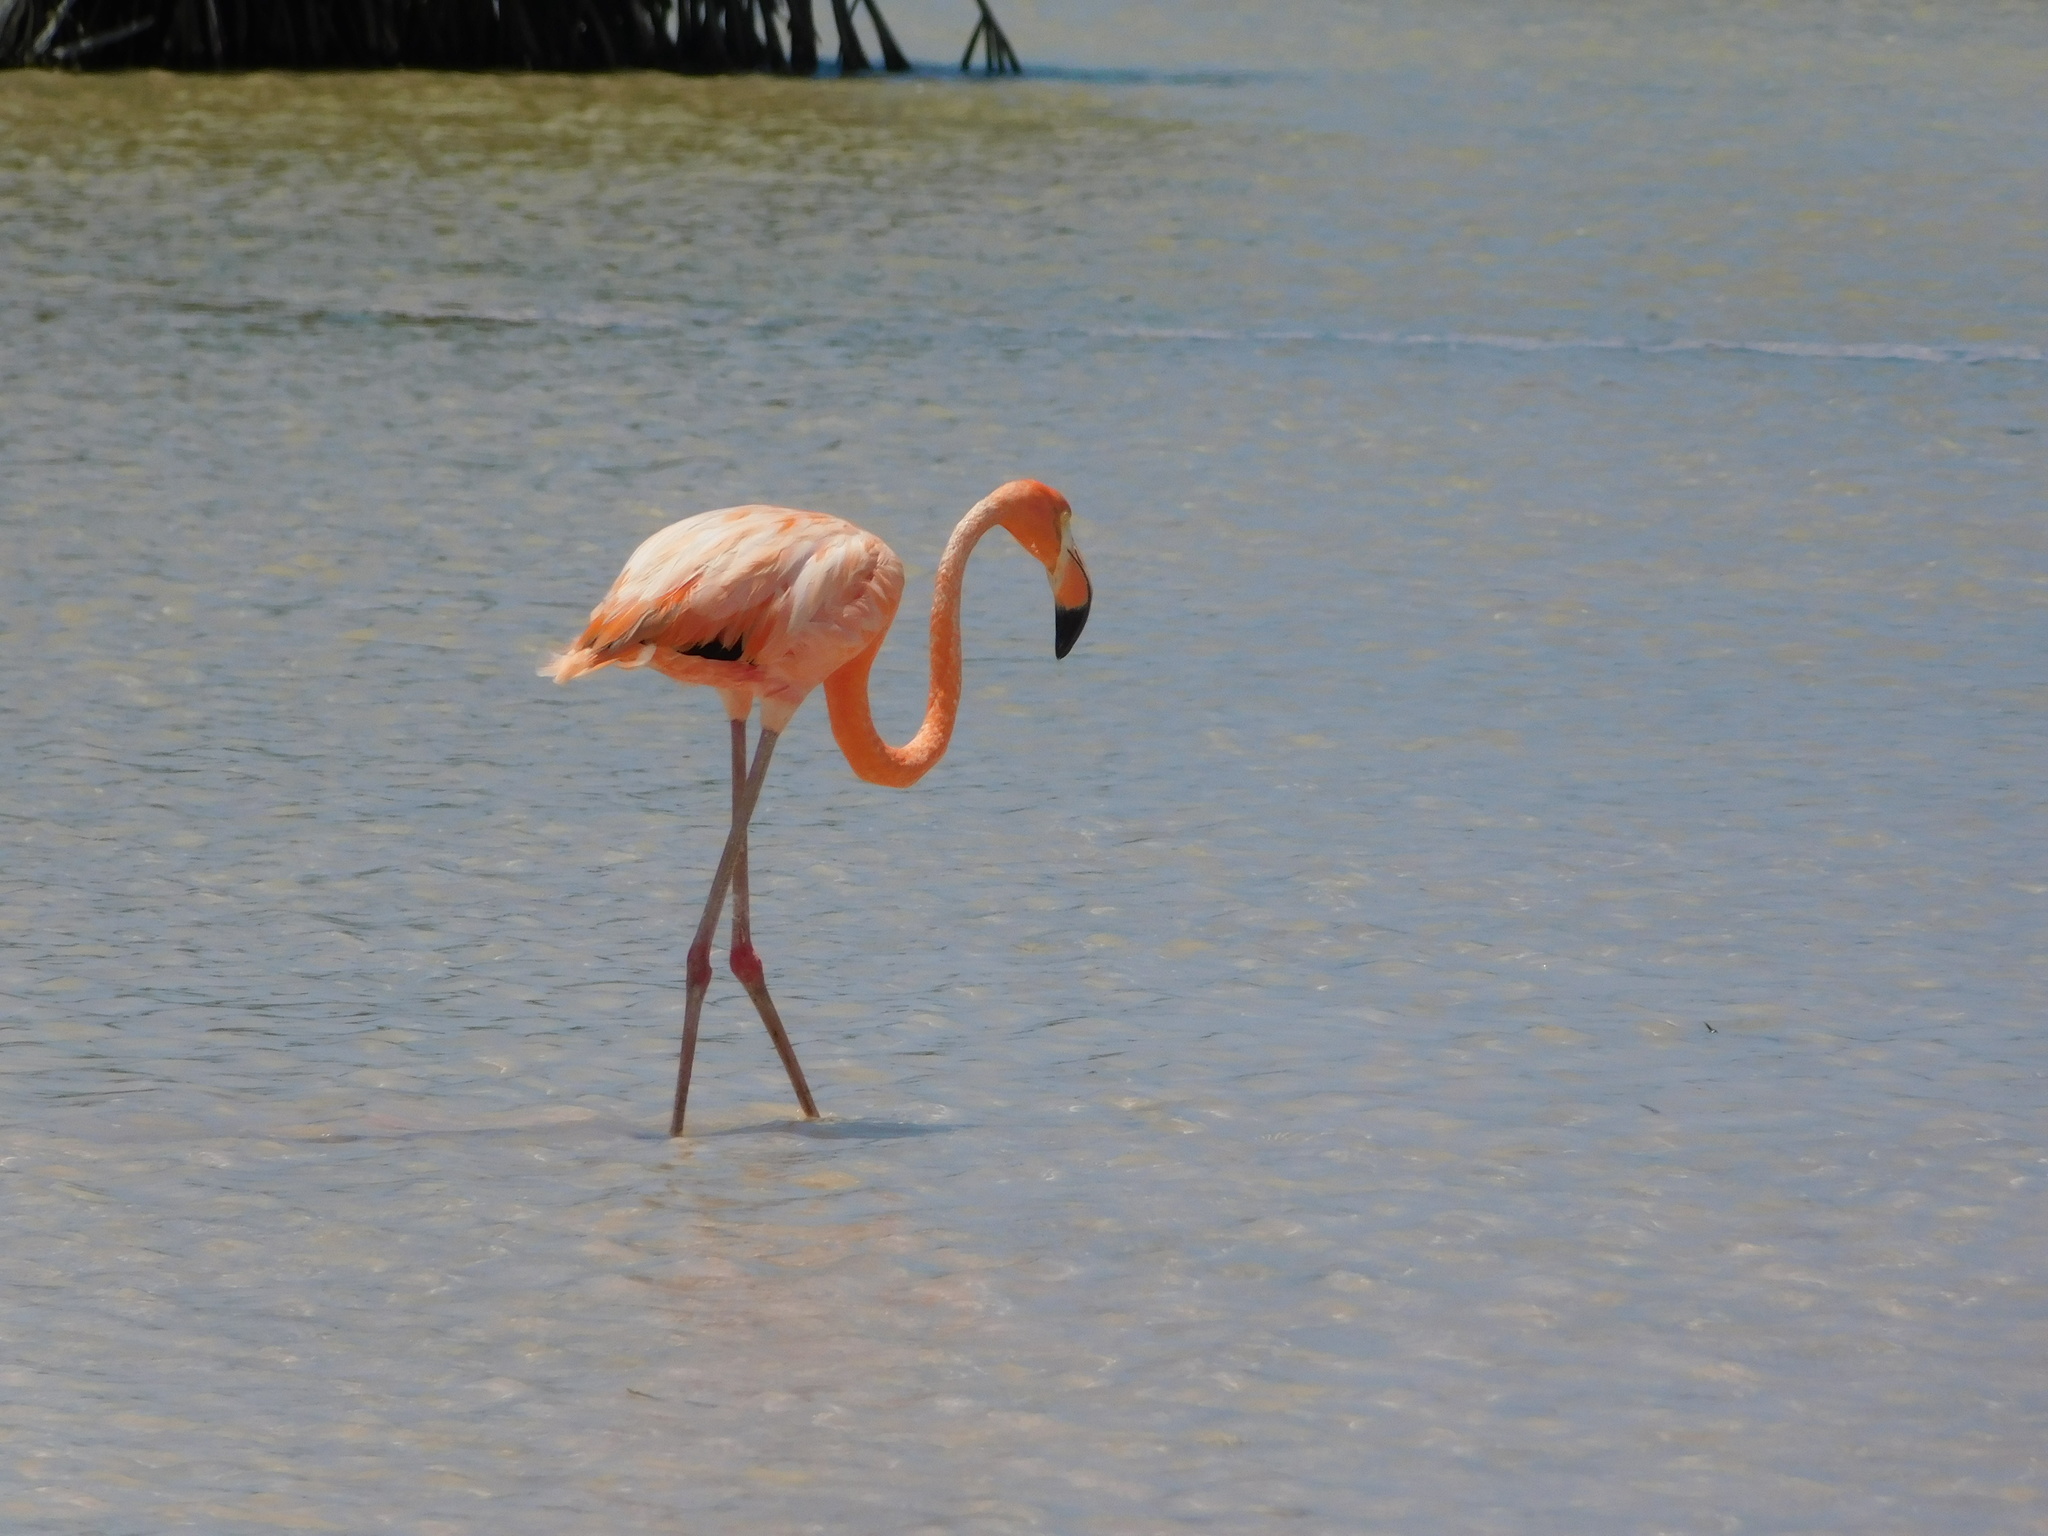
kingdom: Animalia
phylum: Chordata
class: Aves
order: Phoenicopteriformes
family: Phoenicopteridae
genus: Phoenicopterus
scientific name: Phoenicopterus ruber
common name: American flamingo
